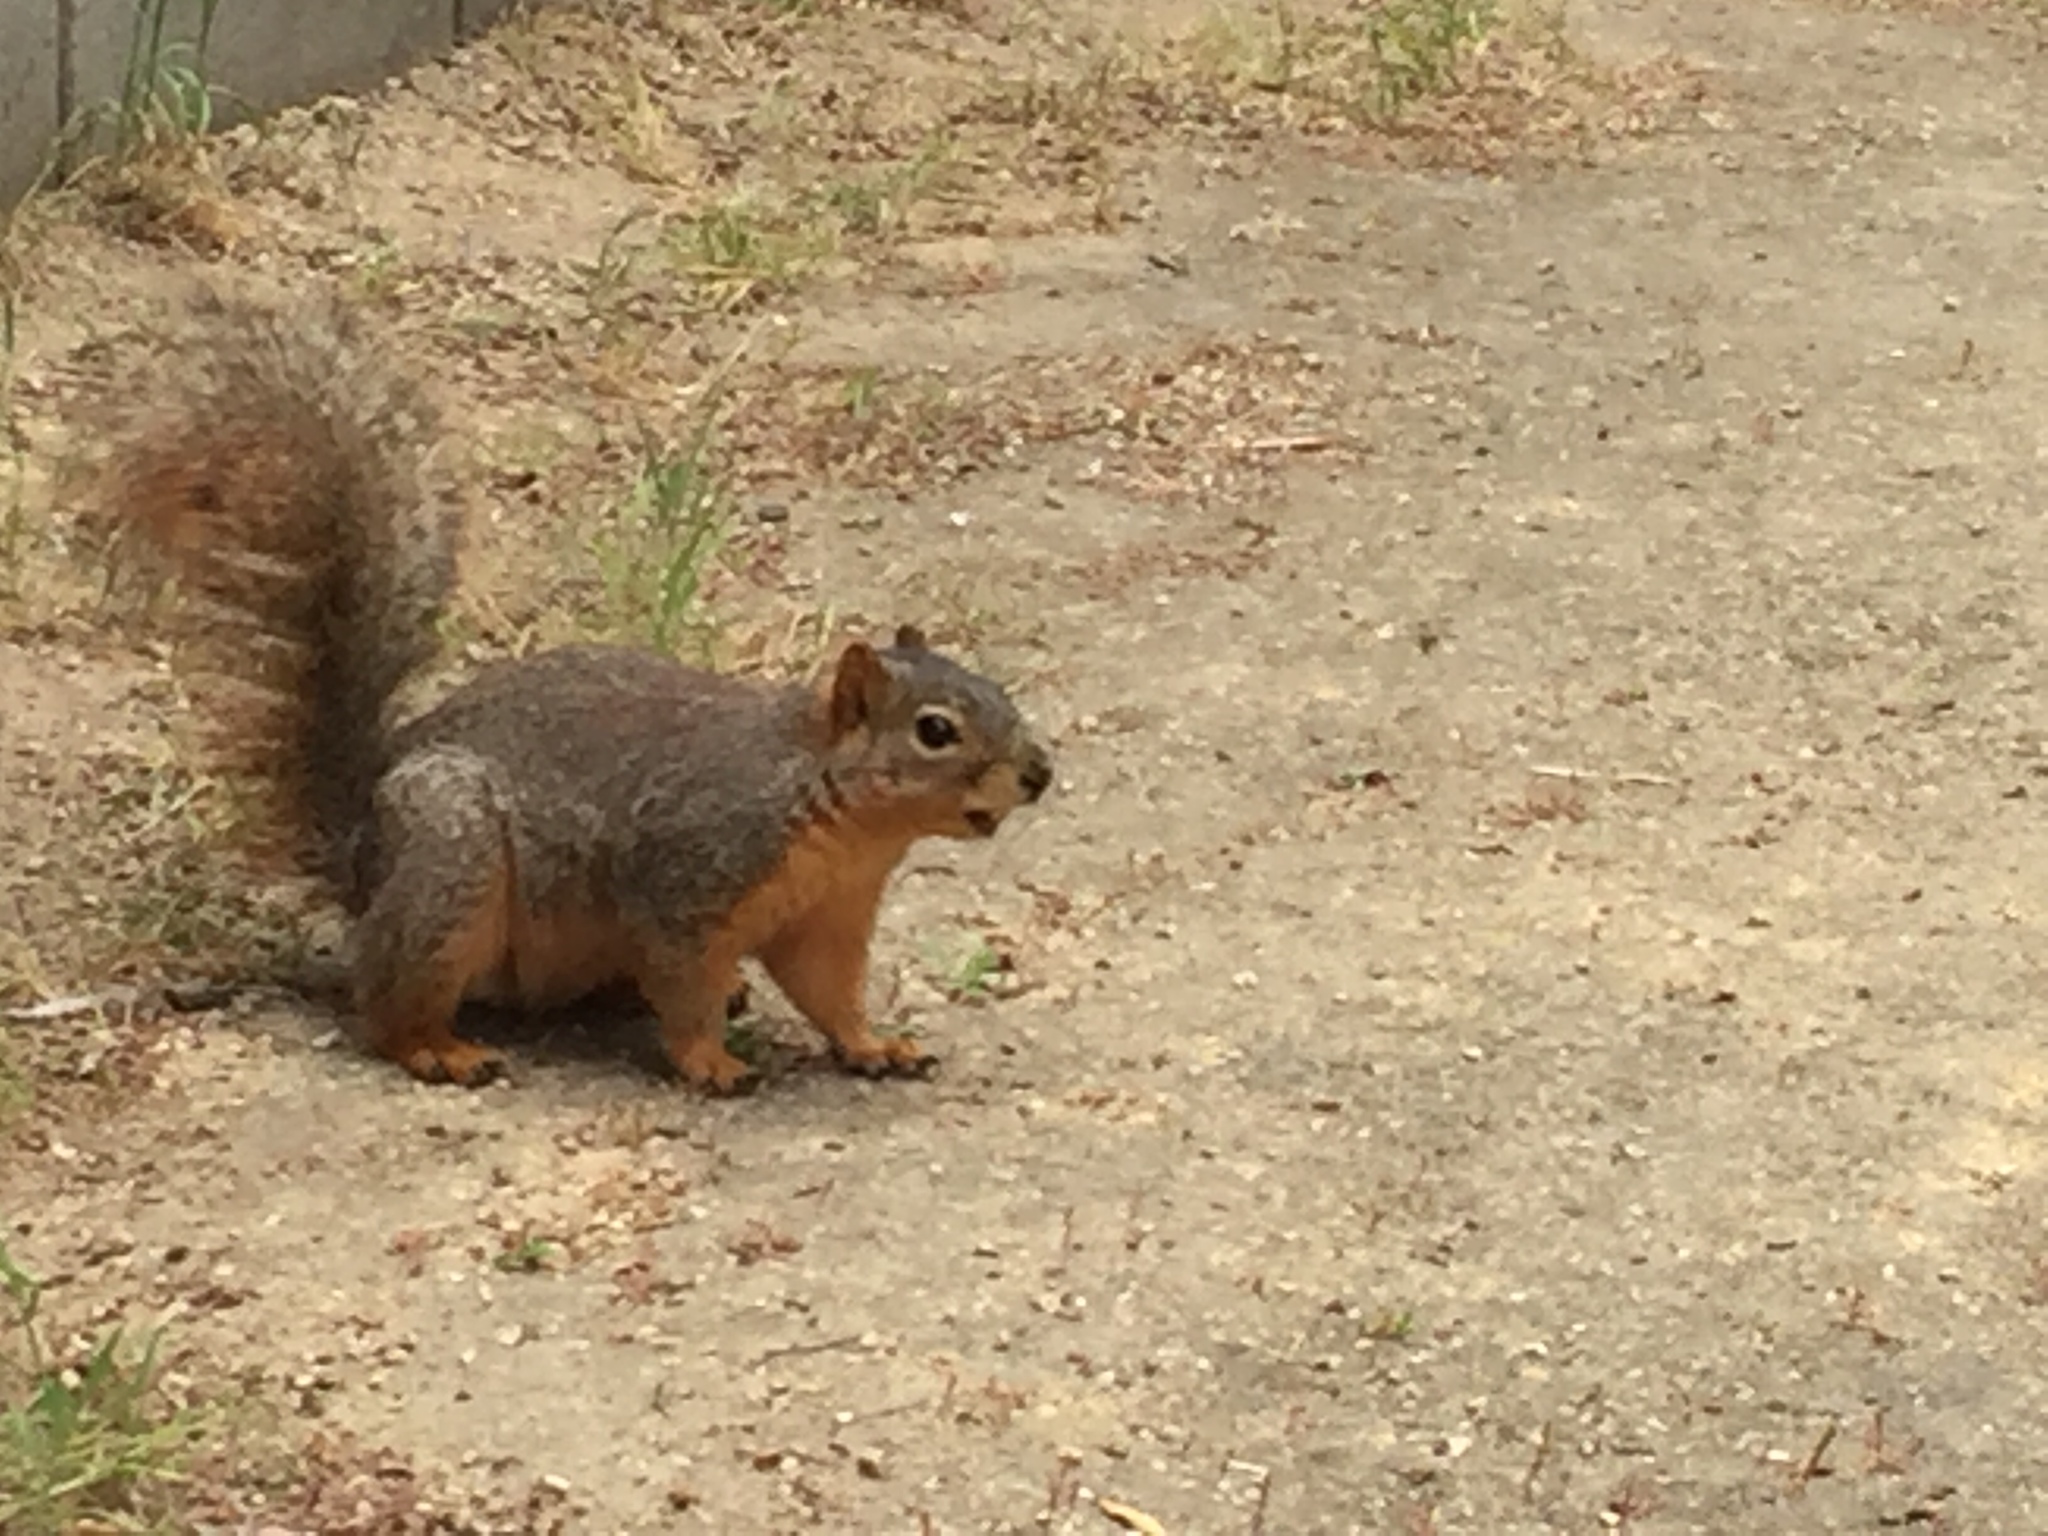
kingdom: Animalia
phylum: Chordata
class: Mammalia
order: Rodentia
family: Sciuridae
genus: Sciurus
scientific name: Sciurus niger
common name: Fox squirrel
